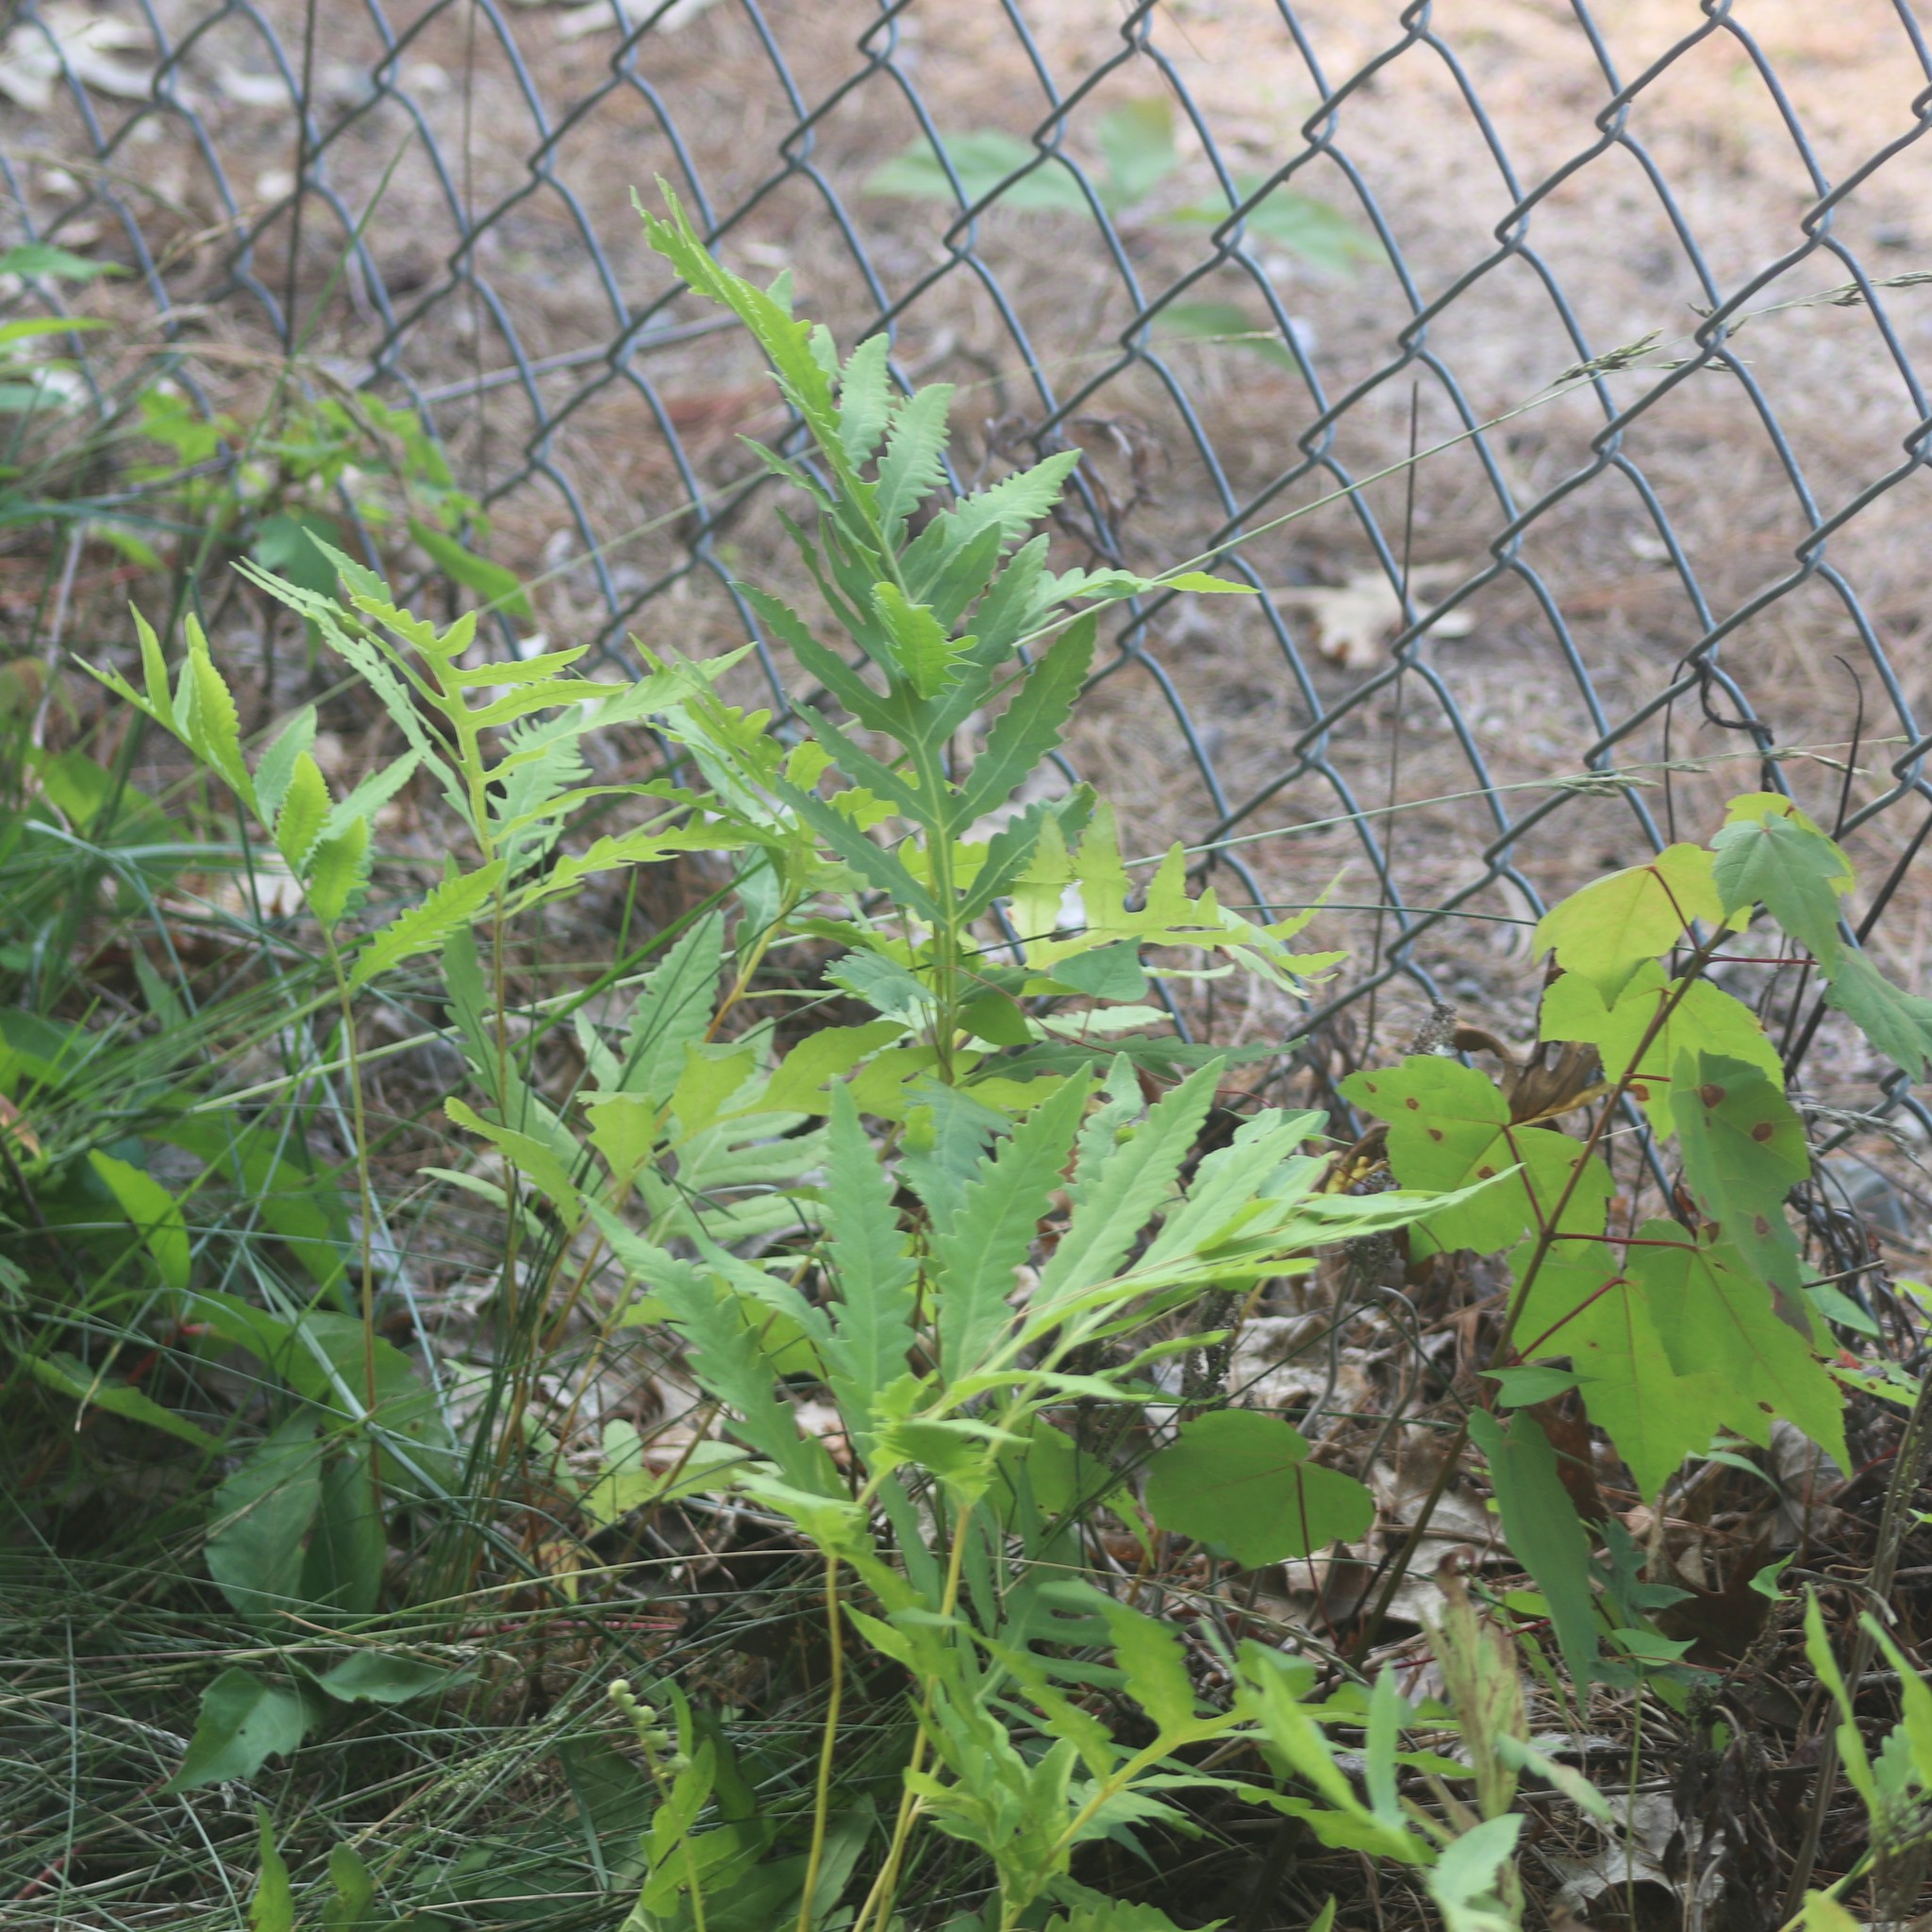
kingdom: Plantae
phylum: Tracheophyta
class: Polypodiopsida
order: Polypodiales
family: Onocleaceae
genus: Onoclea
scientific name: Onoclea sensibilis
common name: Sensitive fern
